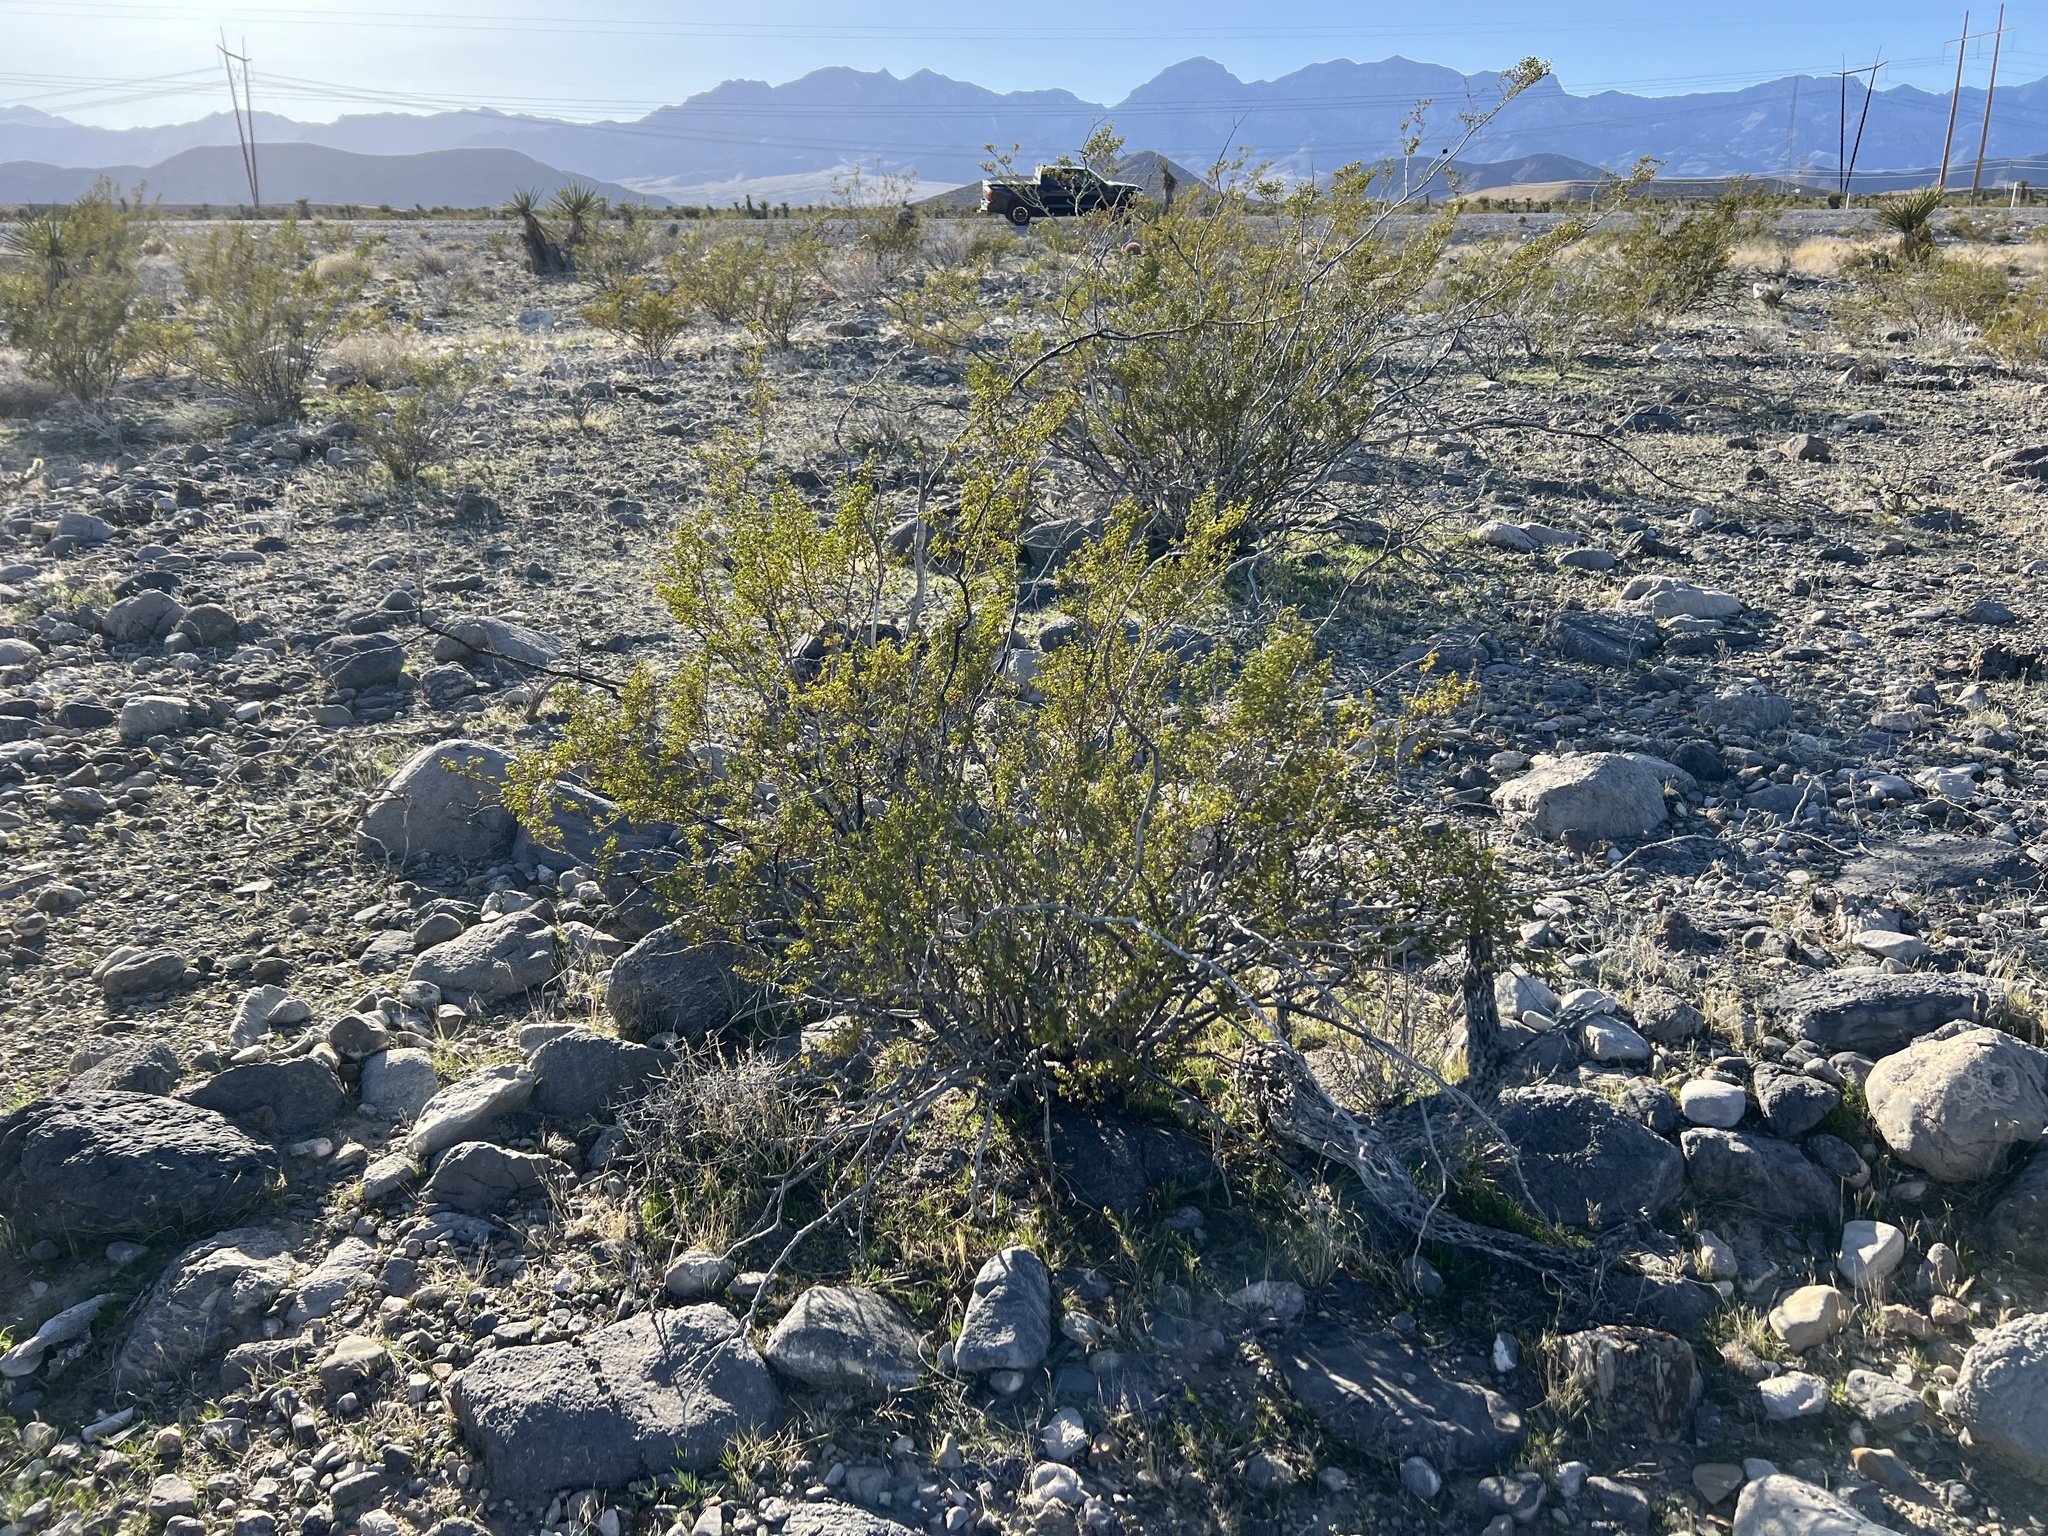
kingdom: Plantae
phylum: Tracheophyta
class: Magnoliopsida
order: Zygophyllales
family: Zygophyllaceae
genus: Larrea
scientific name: Larrea tridentata
